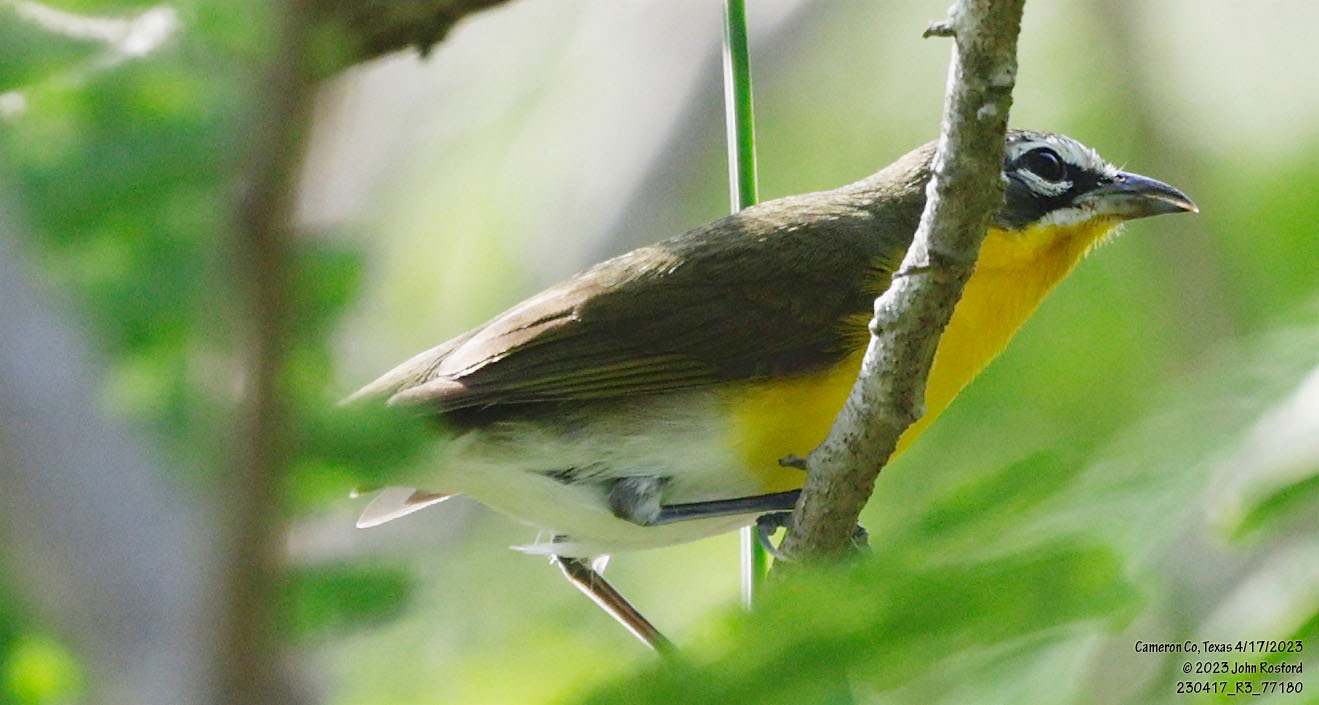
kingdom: Animalia
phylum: Chordata
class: Aves
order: Passeriformes
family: Parulidae
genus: Icteria
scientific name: Icteria virens
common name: Yellow-breasted chat
